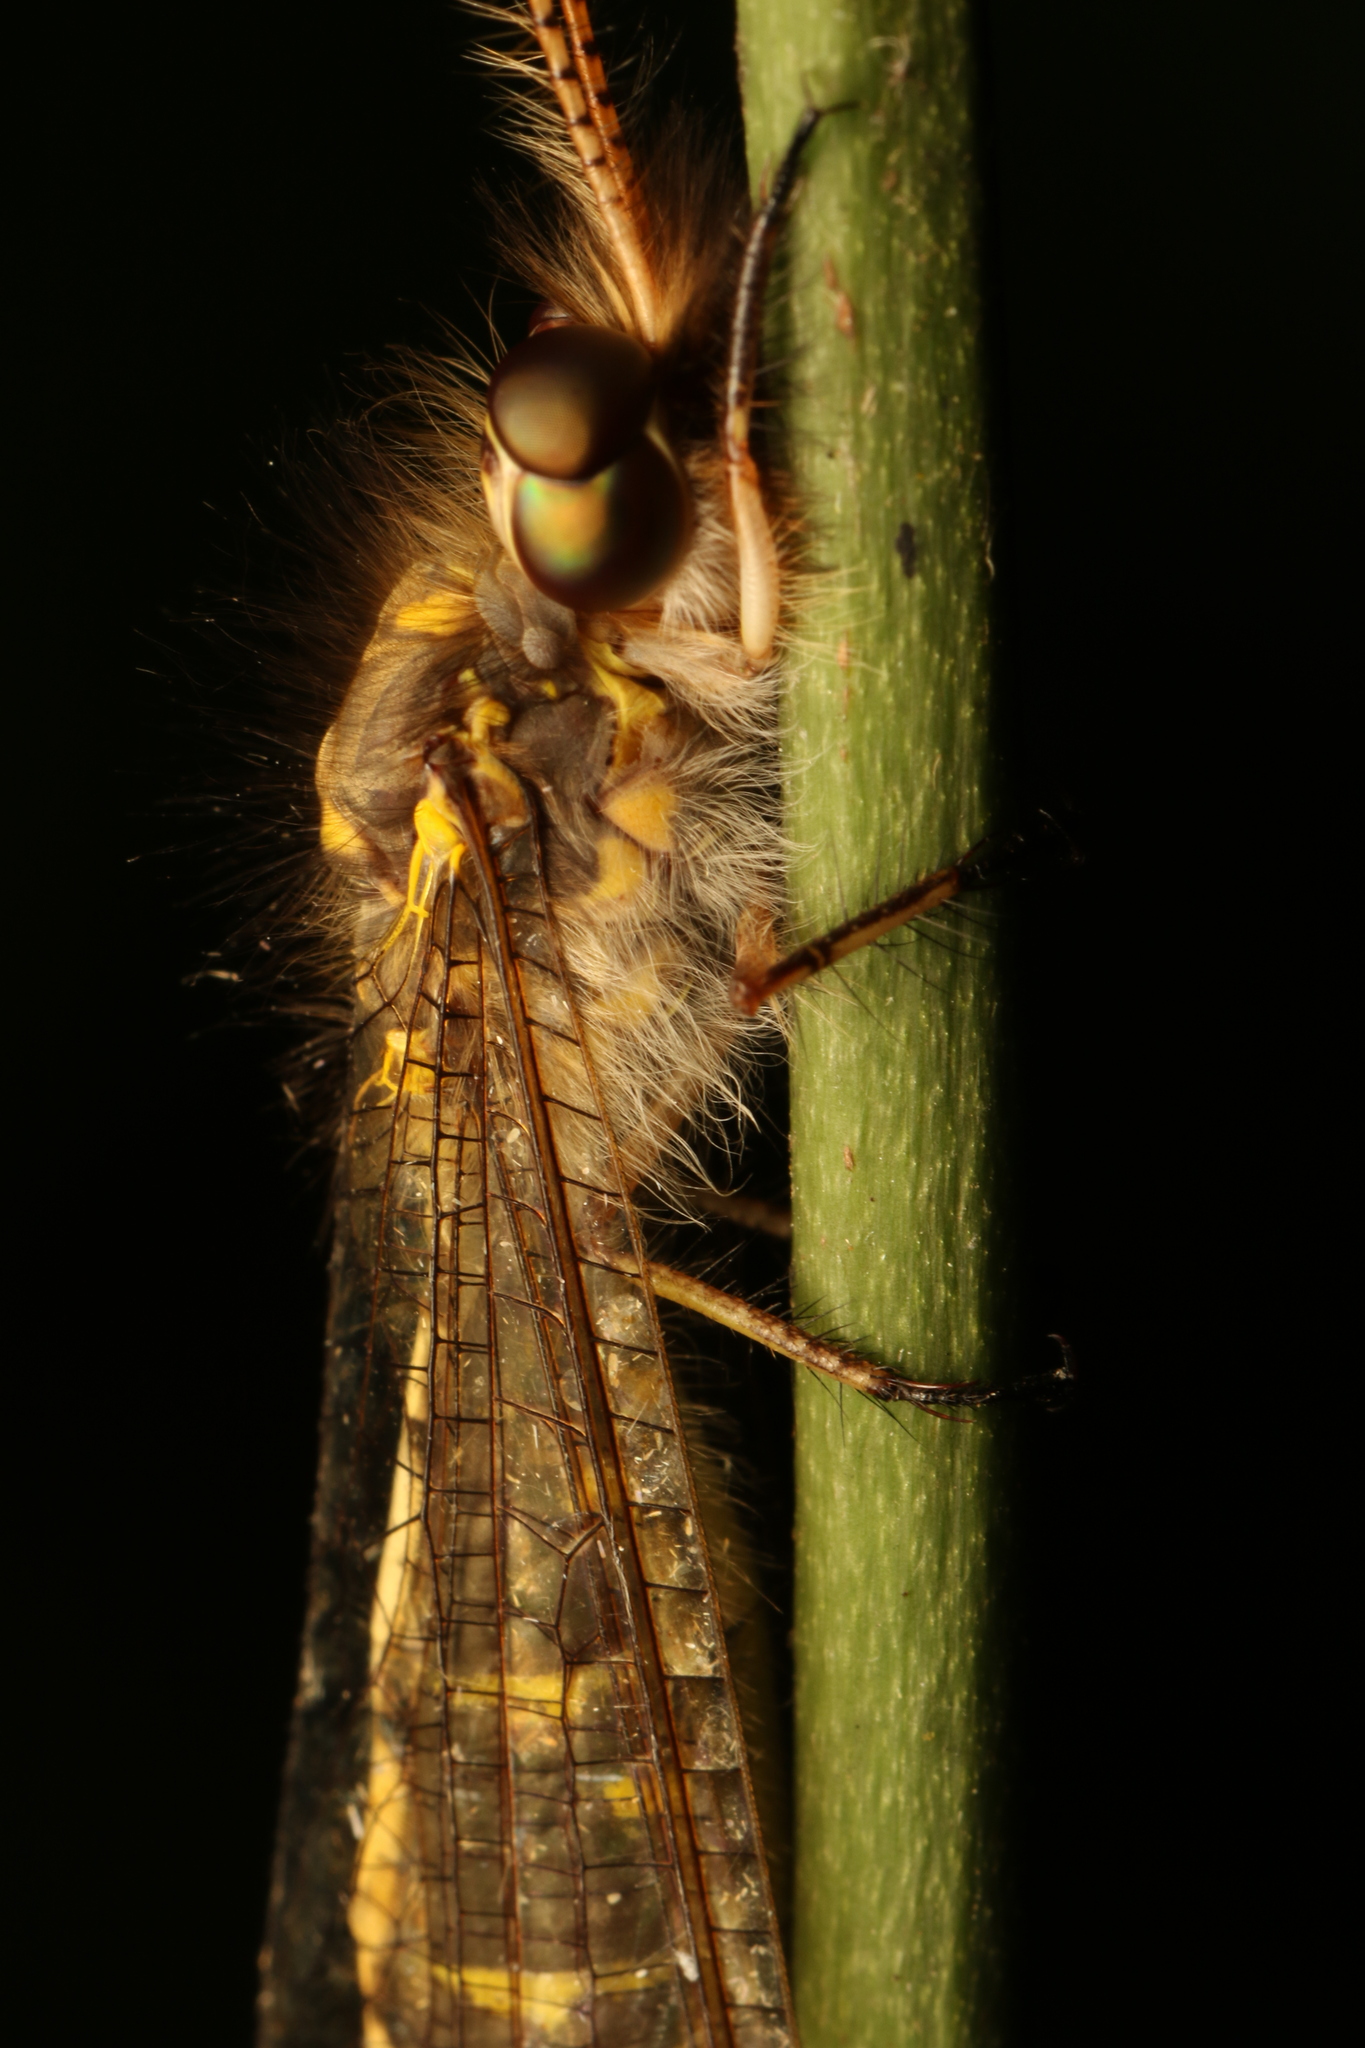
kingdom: Animalia
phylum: Arthropoda
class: Insecta
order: Neuroptera
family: Ascalaphidae
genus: Ameropterus
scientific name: Ameropterus versicolor
